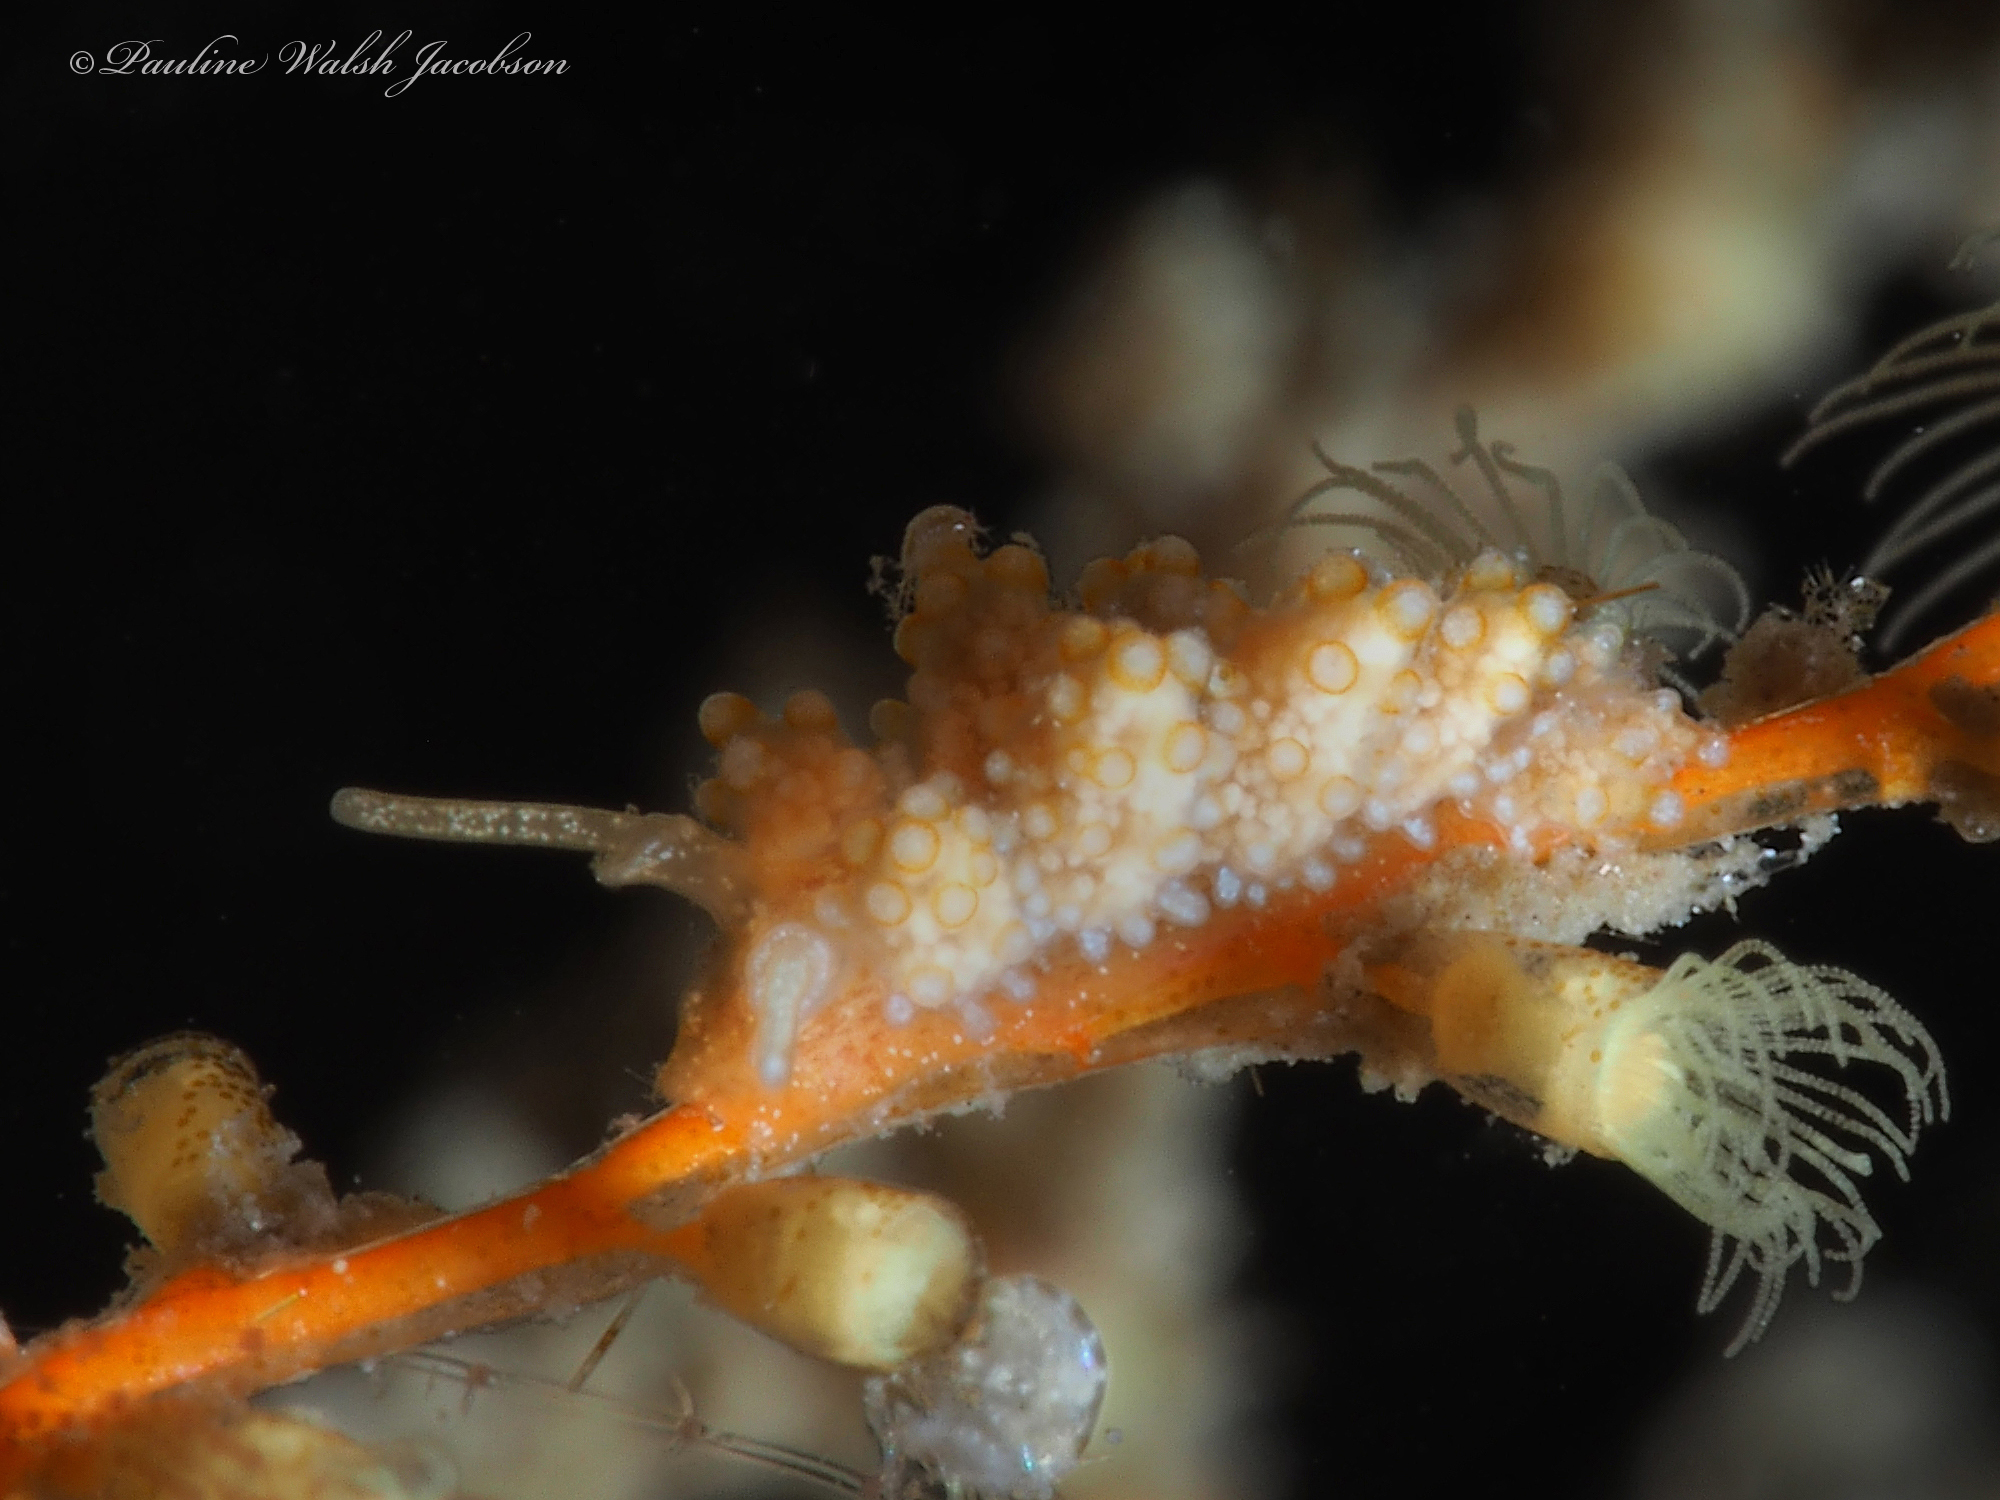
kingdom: Animalia
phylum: Mollusca
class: Gastropoda
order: Nudibranchia
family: Dotidae
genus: Doto
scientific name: Doto torrelavega
